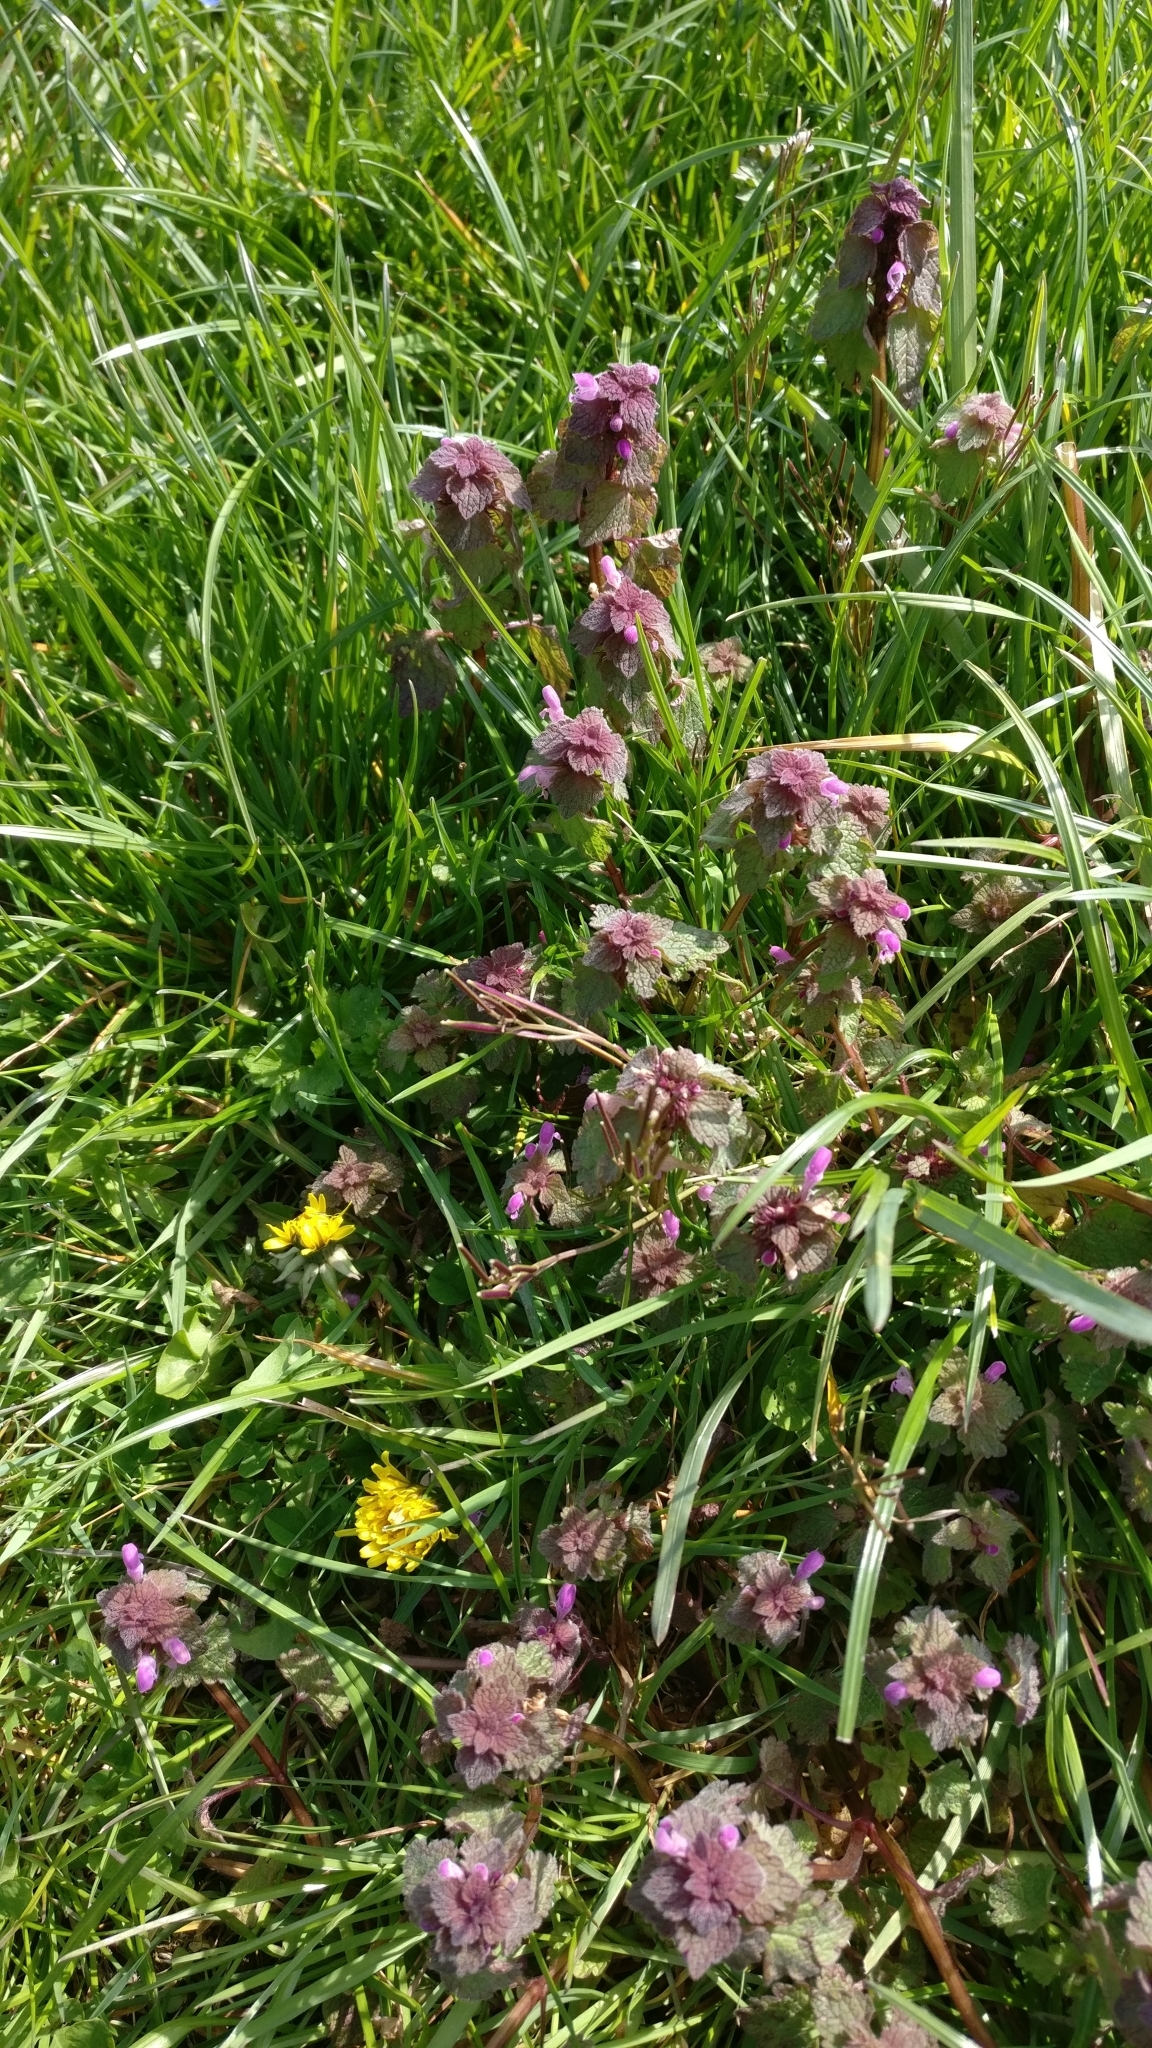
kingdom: Plantae
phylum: Tracheophyta
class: Magnoliopsida
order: Lamiales
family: Lamiaceae
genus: Lamium
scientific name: Lamium purpureum
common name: Red dead-nettle
